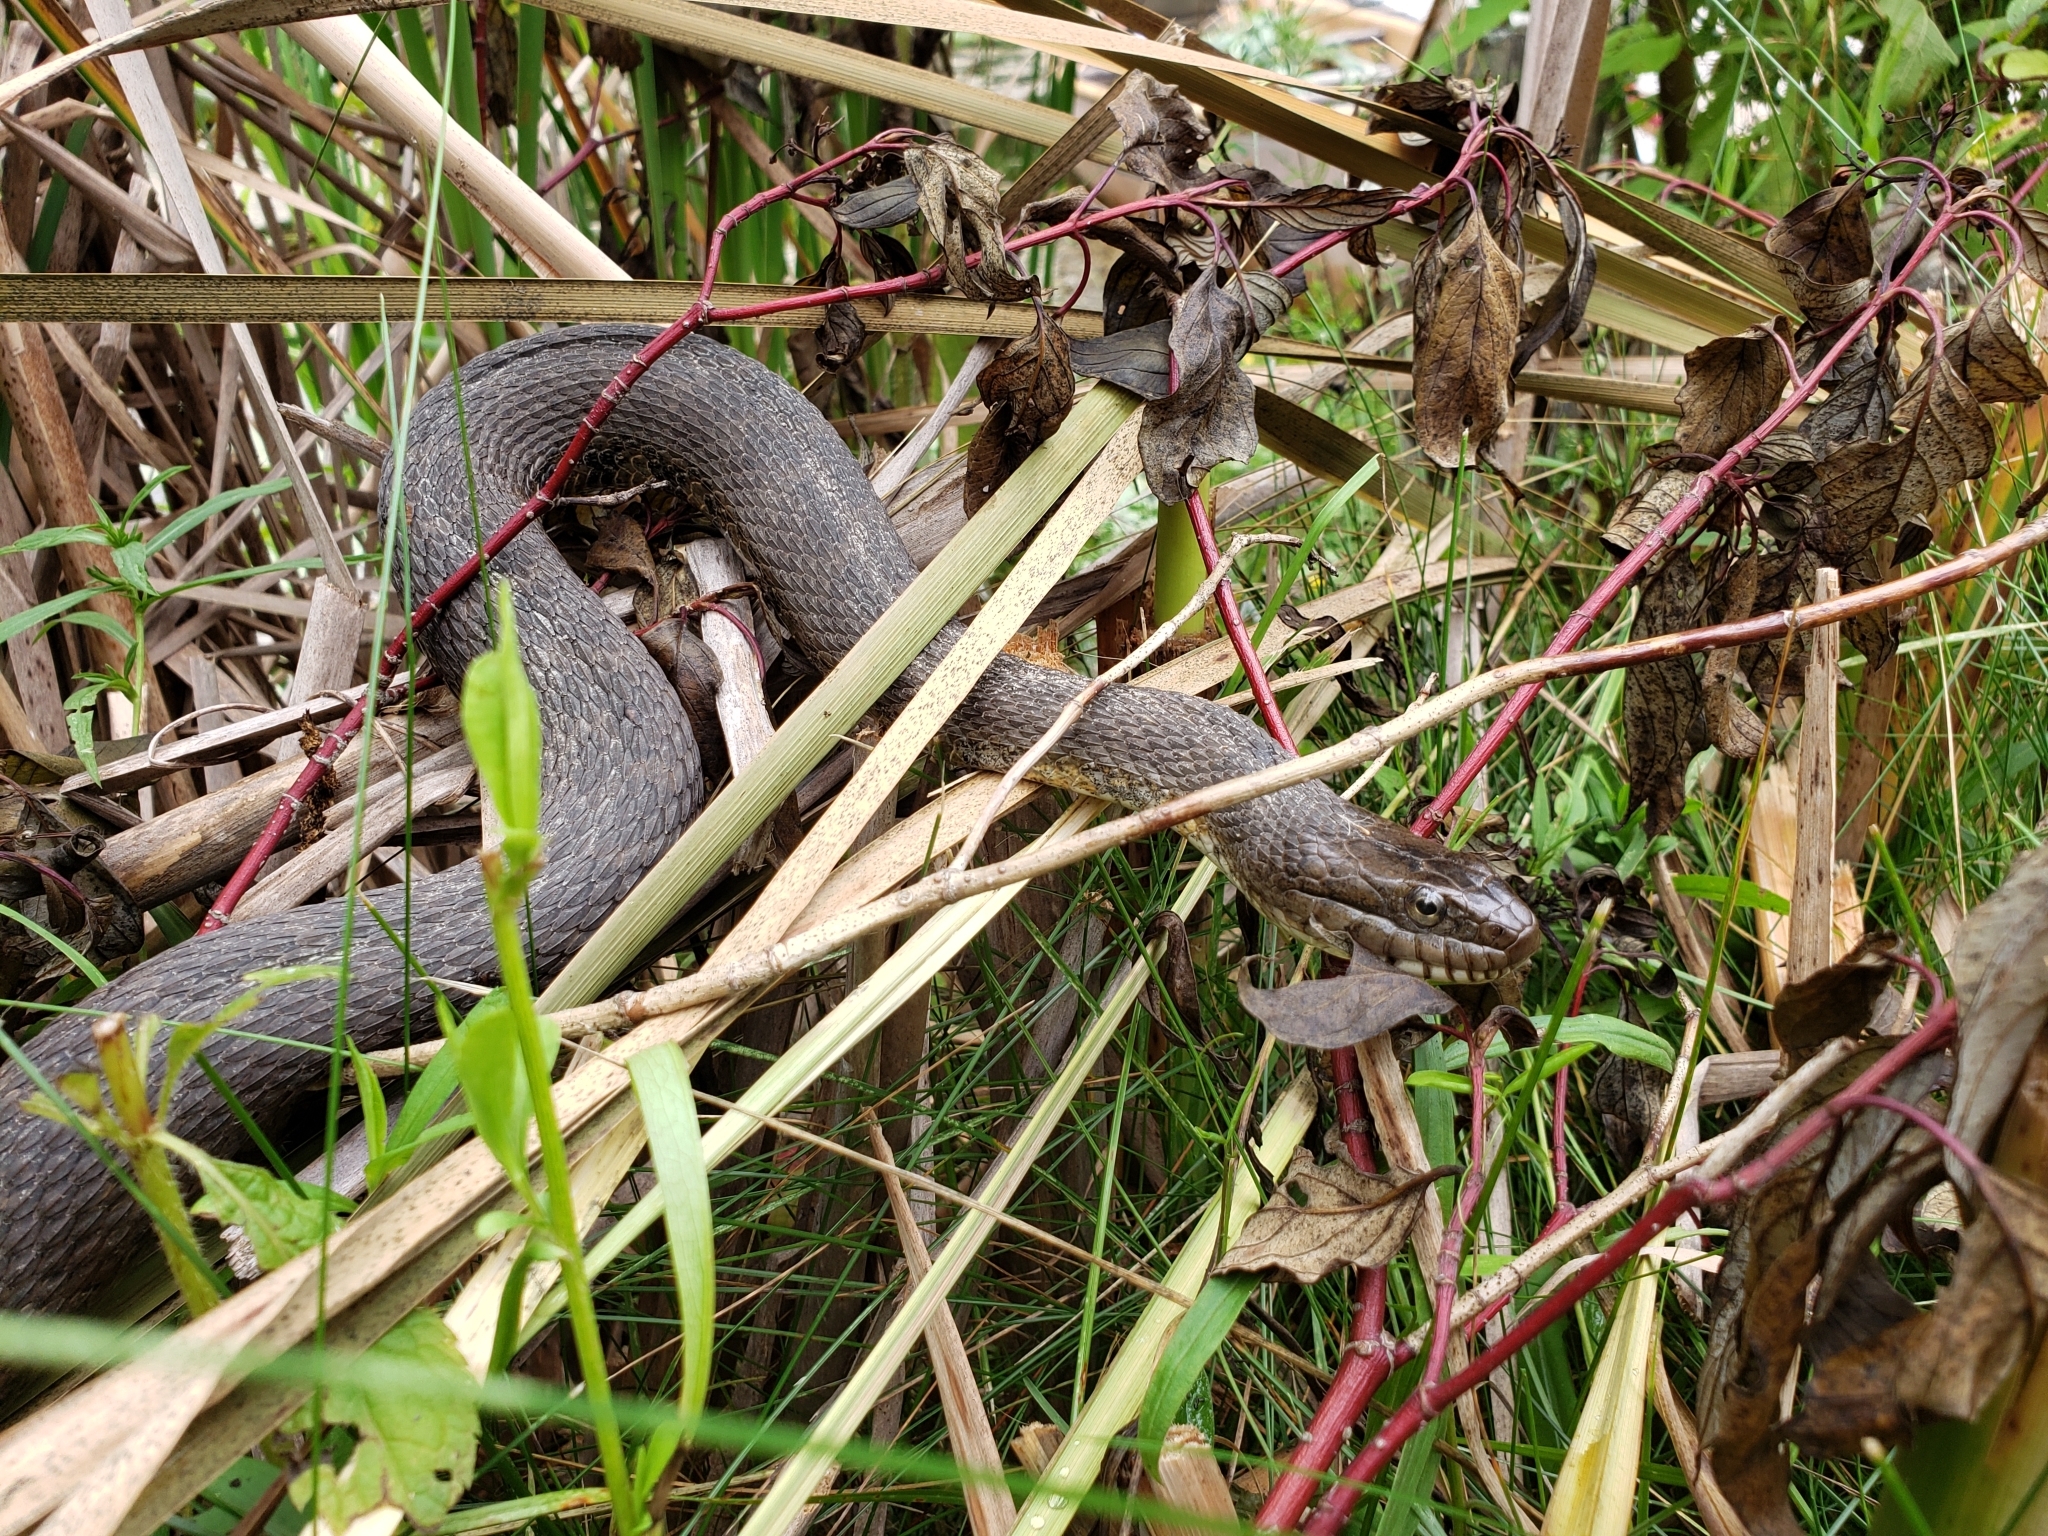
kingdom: Animalia
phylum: Chordata
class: Squamata
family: Colubridae
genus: Nerodia
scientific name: Nerodia sipedon
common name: Northern water snake
